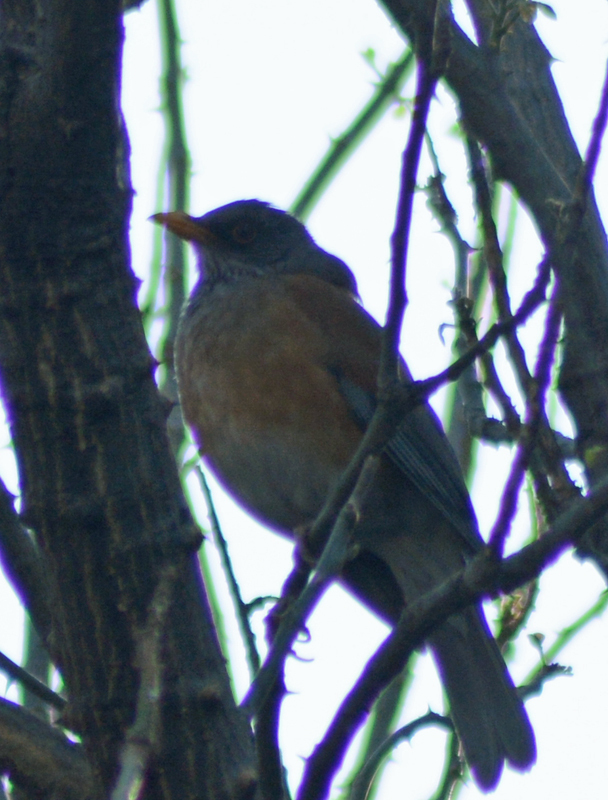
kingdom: Animalia
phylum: Chordata
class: Aves
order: Passeriformes
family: Turdidae
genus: Turdus
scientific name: Turdus rufopalliatus
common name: Rufous-backed robin
